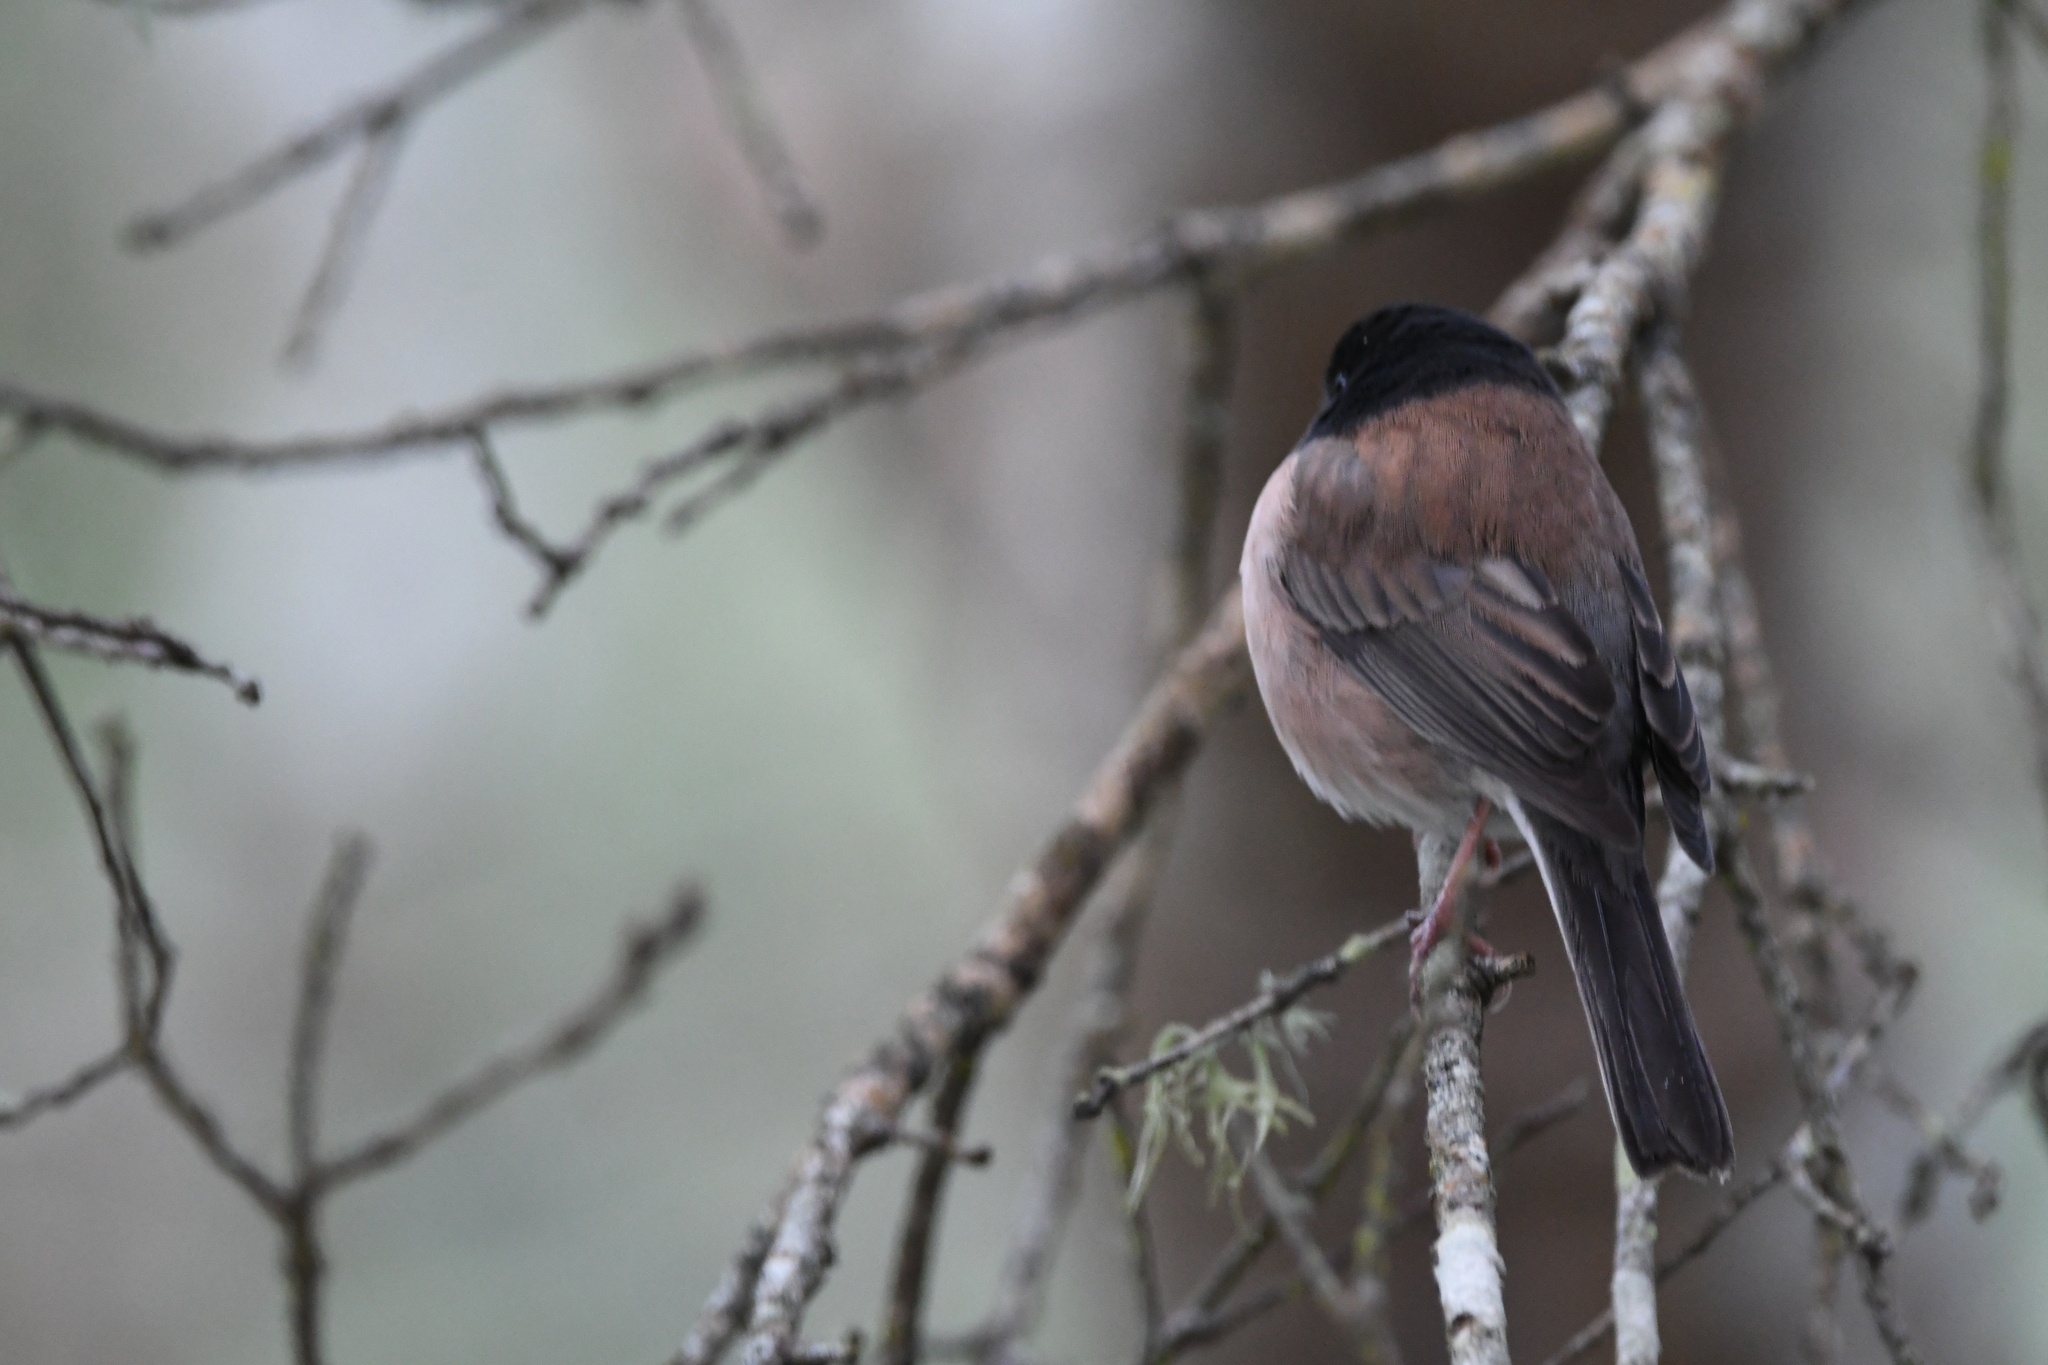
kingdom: Animalia
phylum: Chordata
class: Aves
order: Passeriformes
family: Passerellidae
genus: Junco
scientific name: Junco hyemalis
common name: Dark-eyed junco
